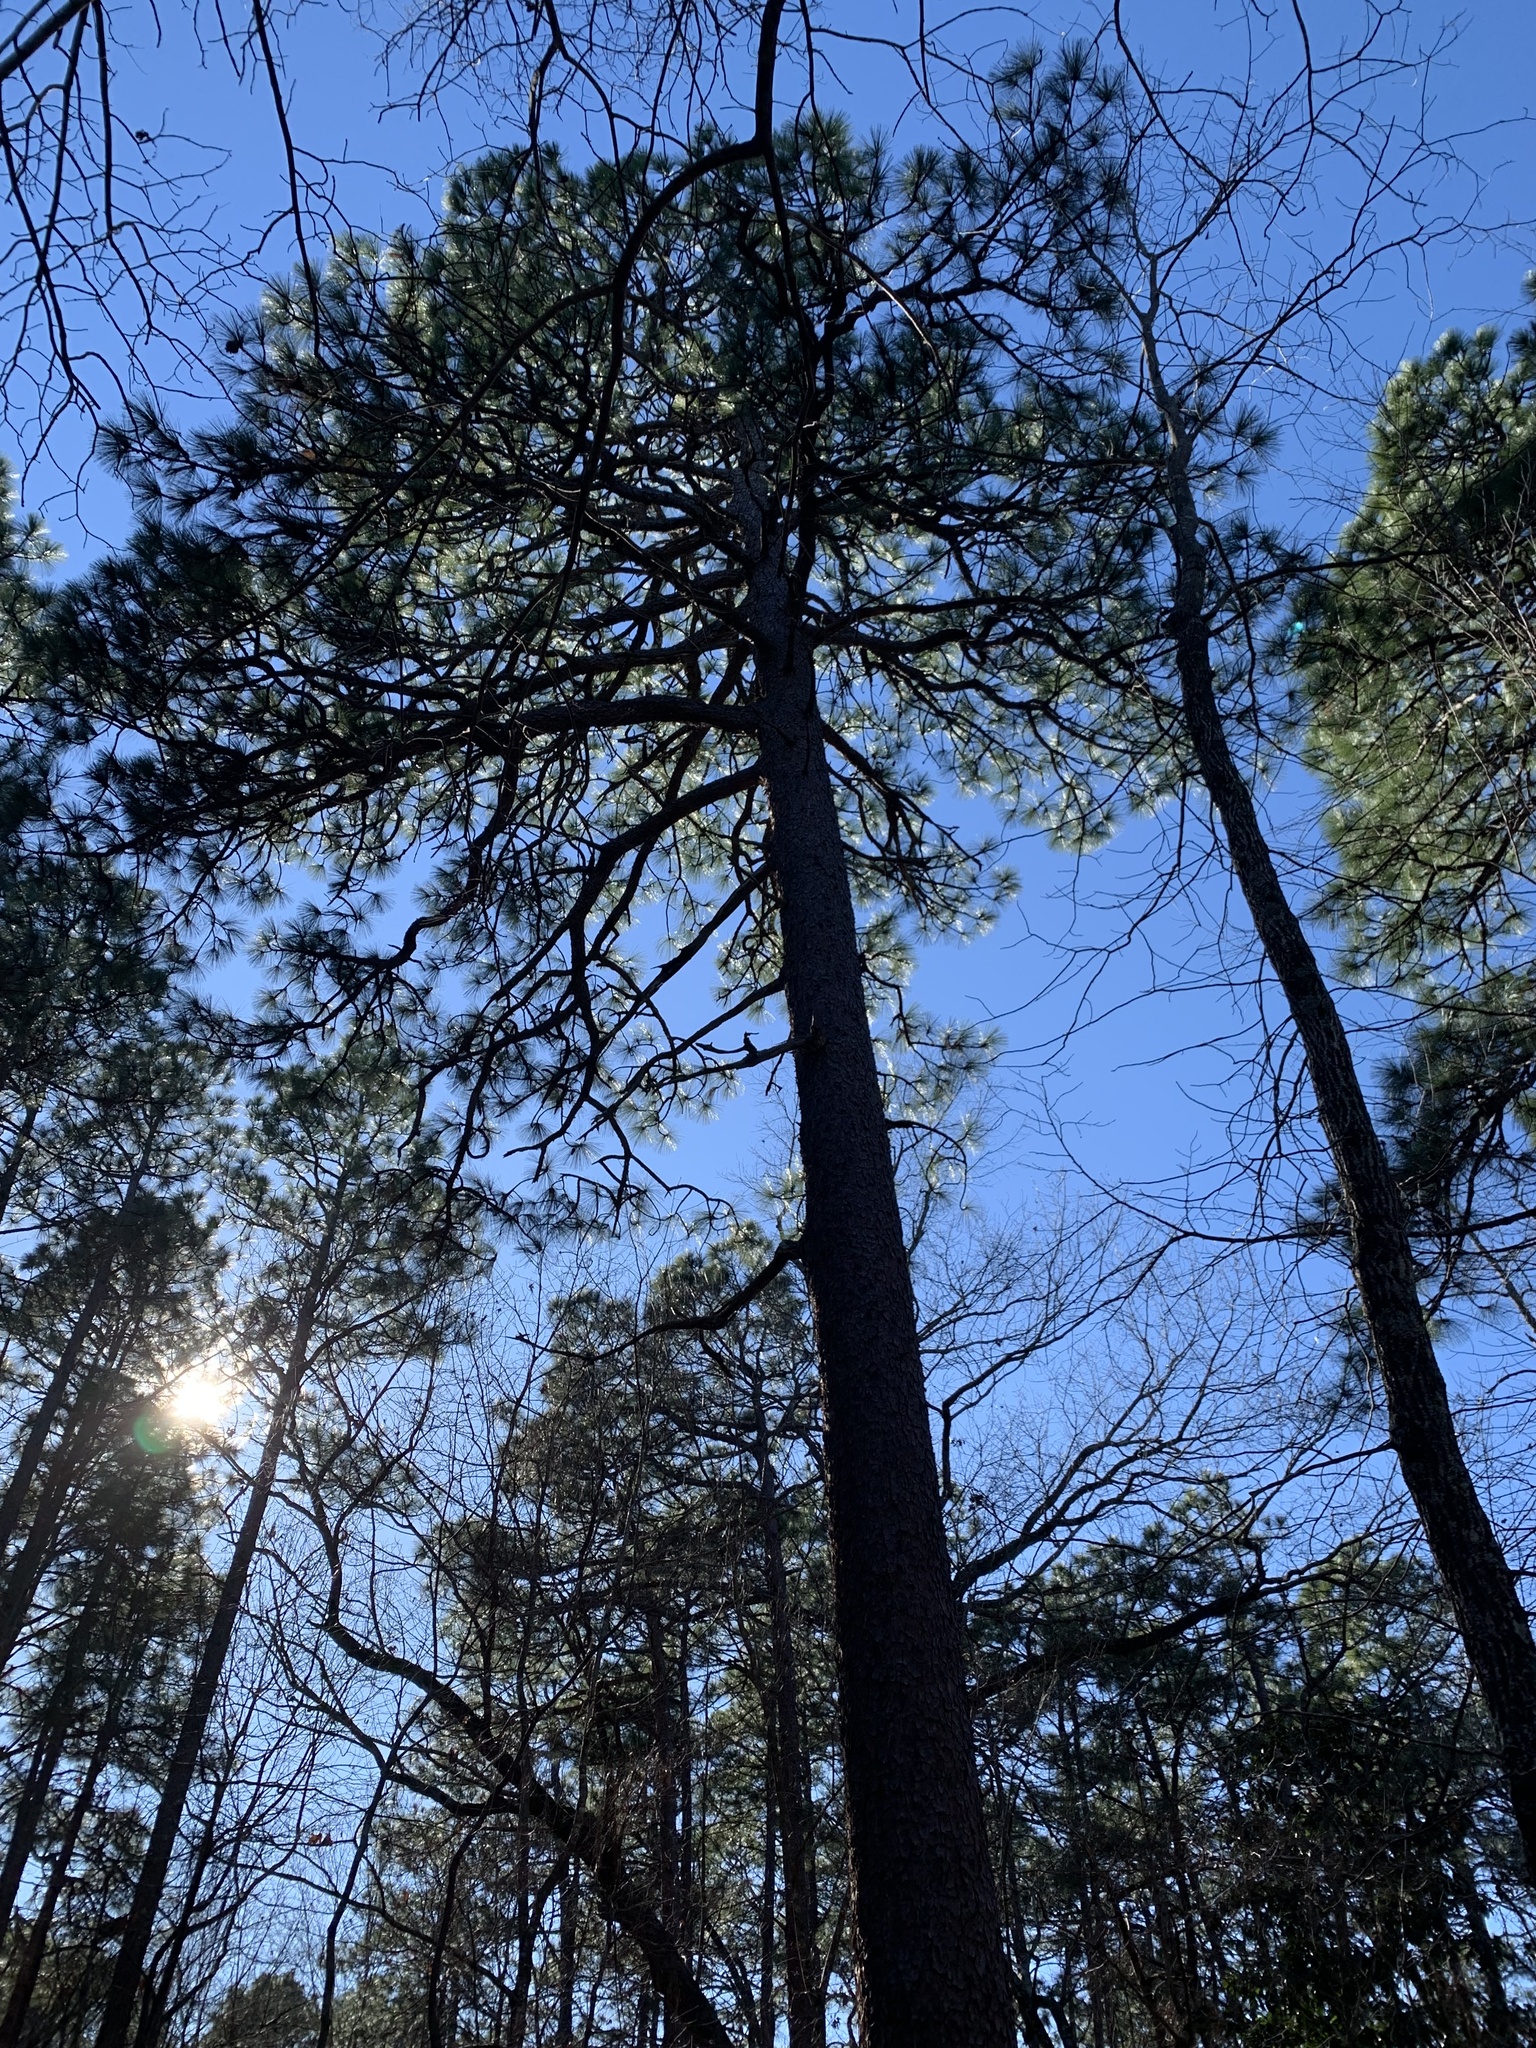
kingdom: Plantae
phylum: Tracheophyta
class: Pinopsida
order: Pinales
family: Pinaceae
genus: Pinus
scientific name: Pinus palustris
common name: Longleaf pine
